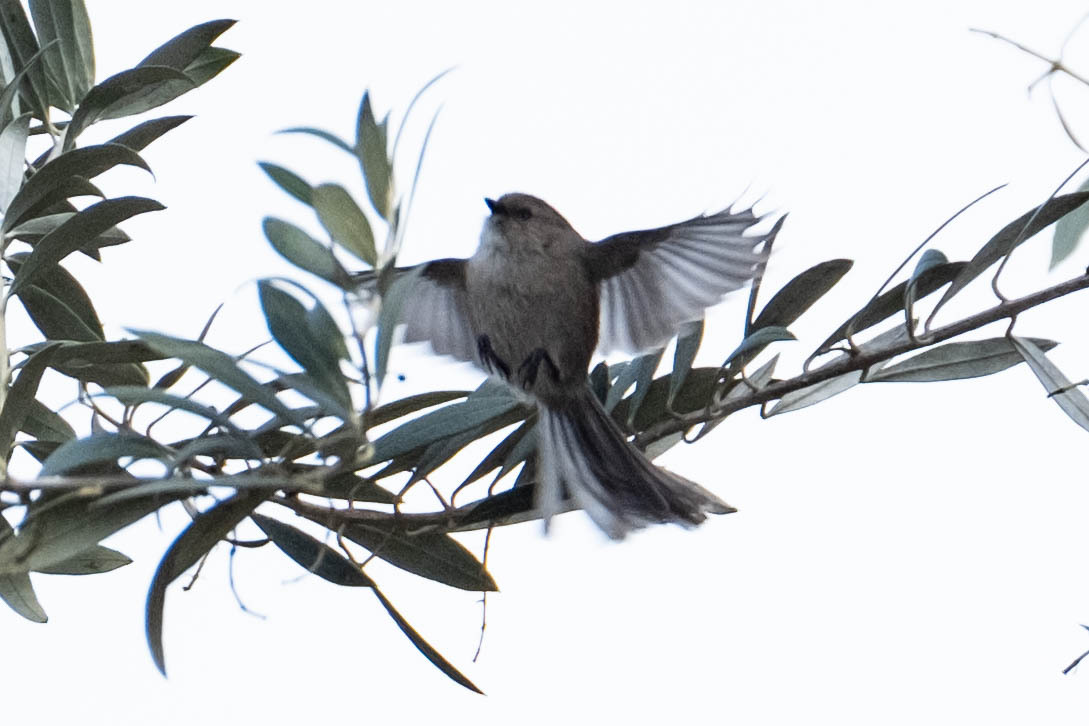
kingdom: Animalia
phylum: Chordata
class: Aves
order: Passeriformes
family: Aegithalidae
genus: Psaltriparus
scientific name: Psaltriparus minimus
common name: American bushtit
